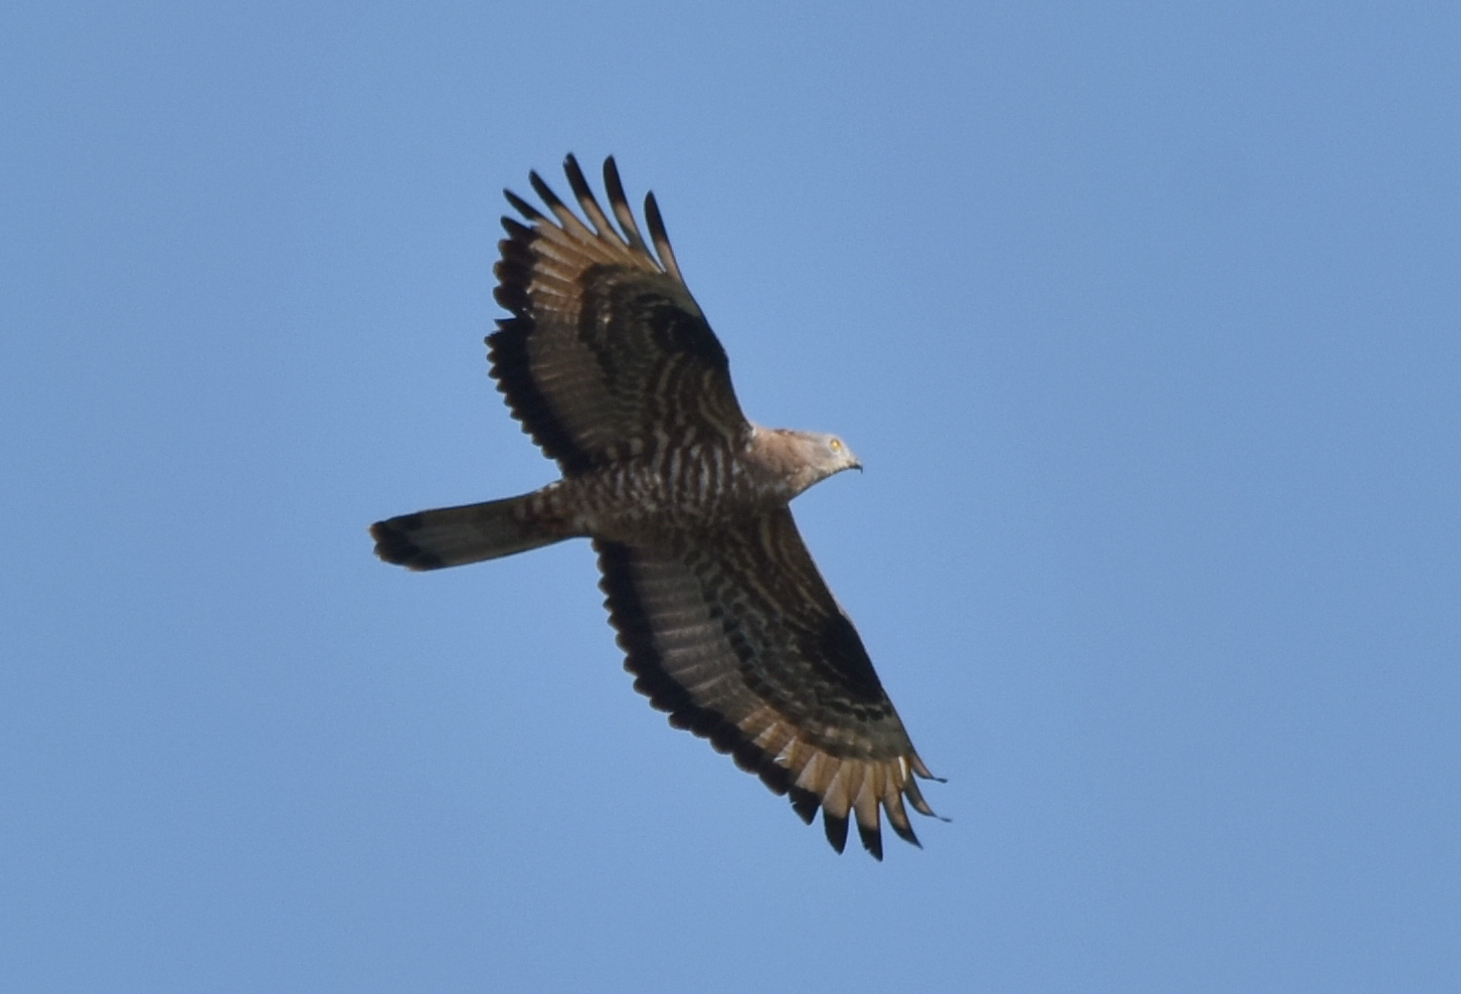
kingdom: Animalia
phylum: Chordata
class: Aves
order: Accipitriformes
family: Accipitridae
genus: Pernis
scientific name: Pernis apivorus
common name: European honey buzzard
